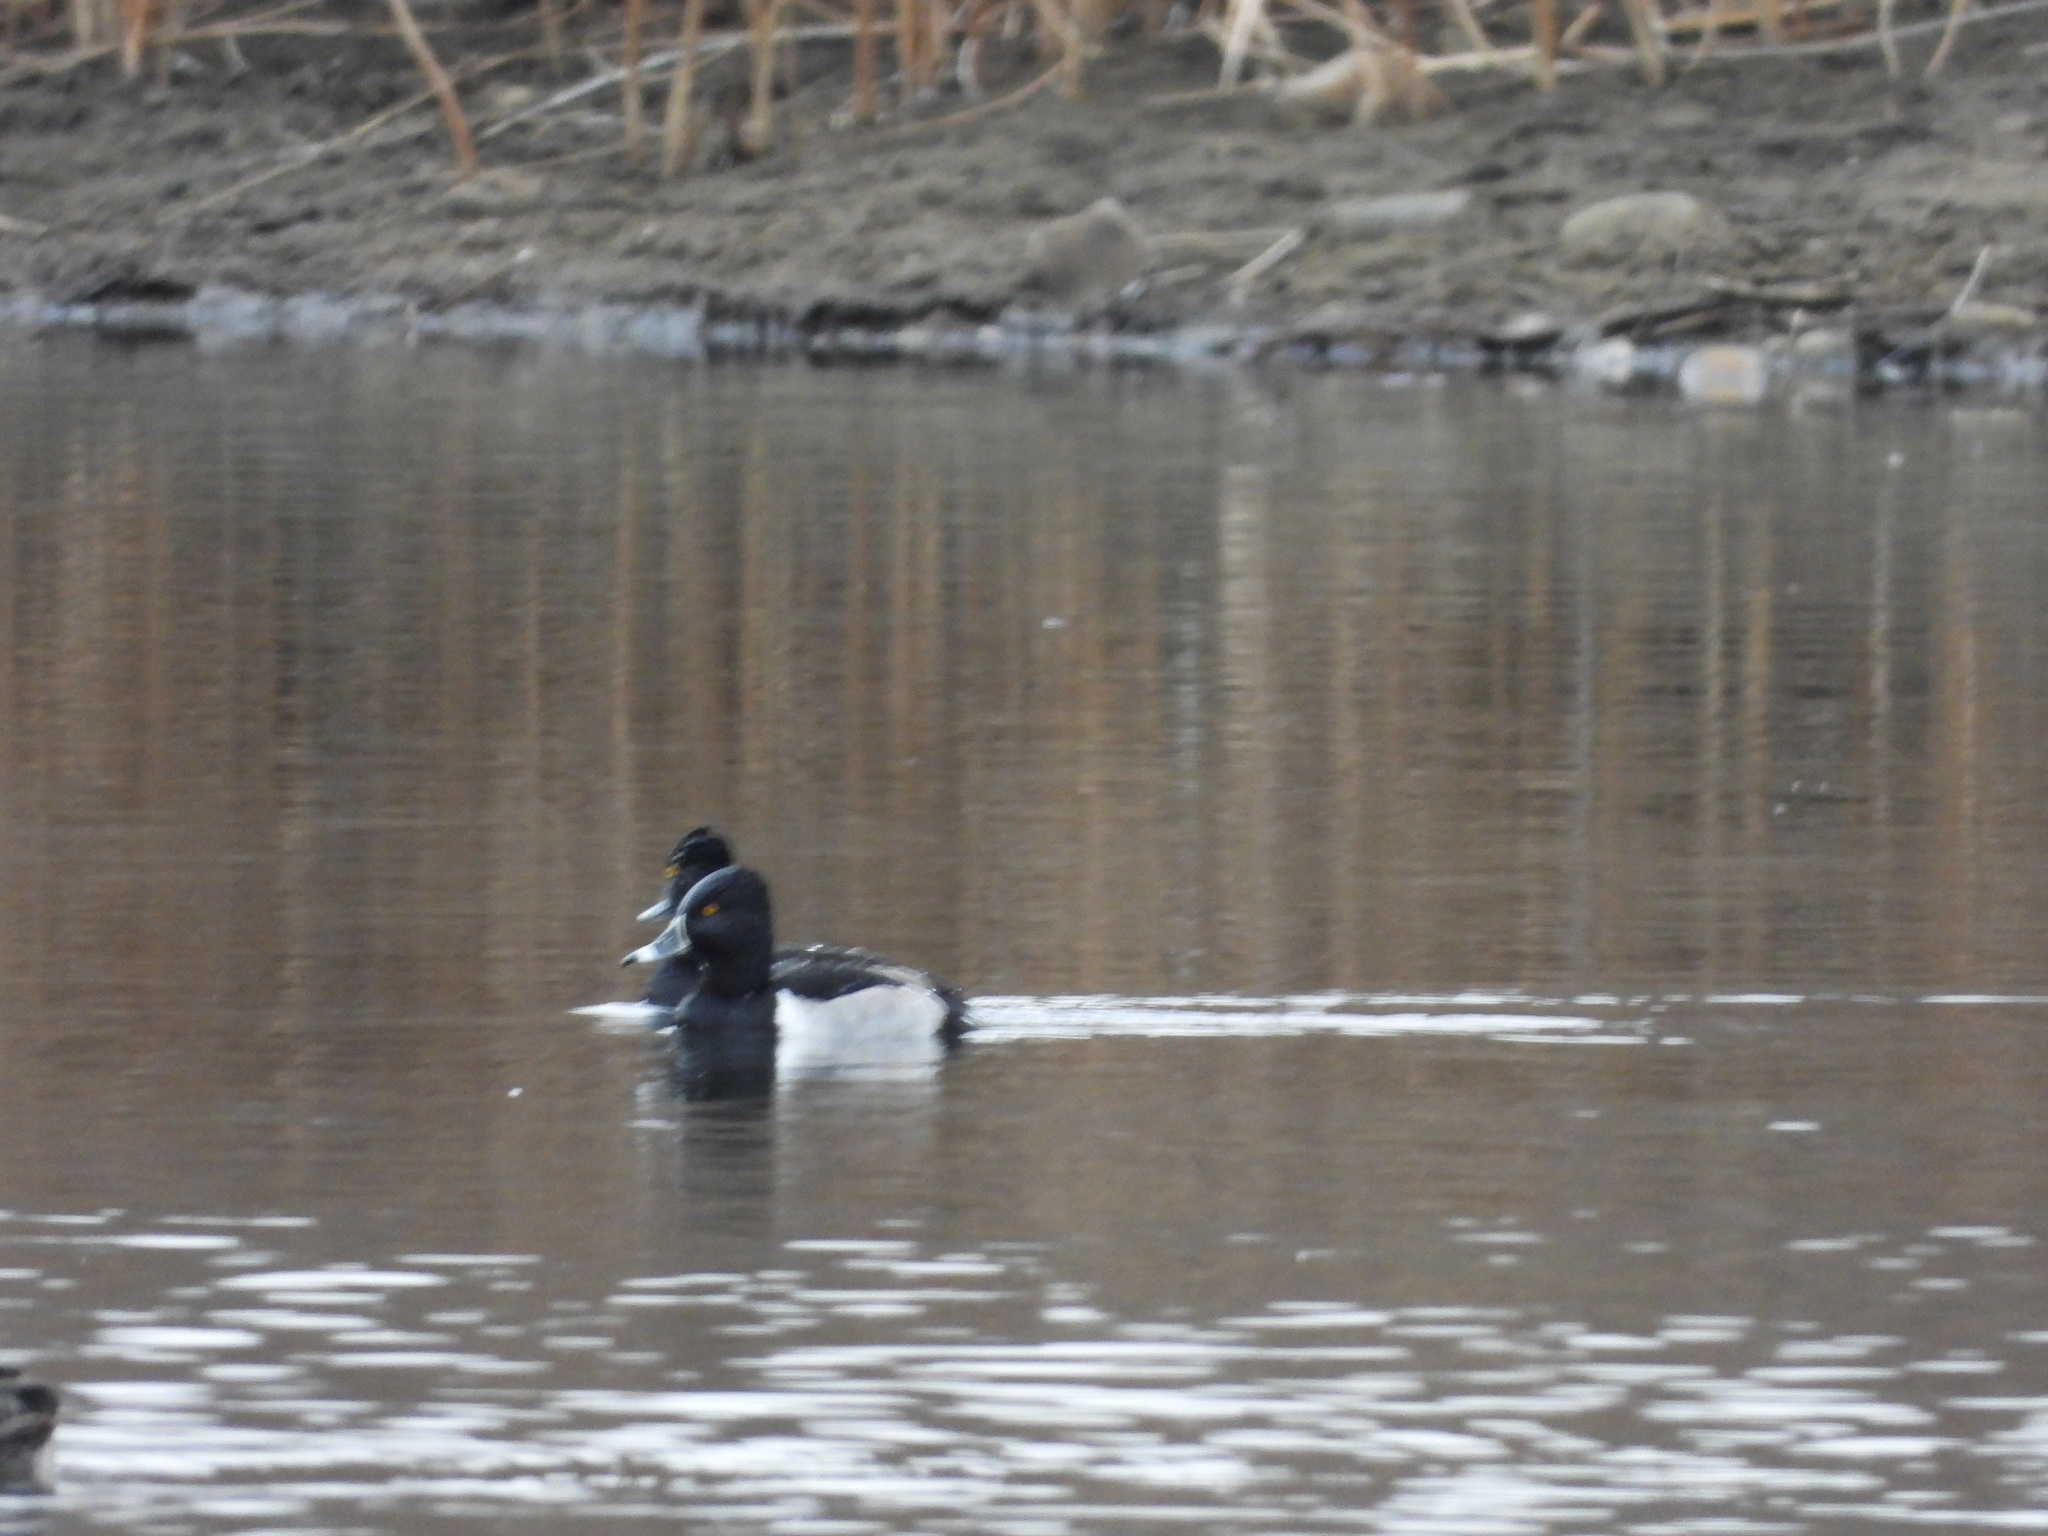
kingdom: Animalia
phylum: Chordata
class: Aves
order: Anseriformes
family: Anatidae
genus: Mareca
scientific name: Mareca americana
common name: American wigeon
